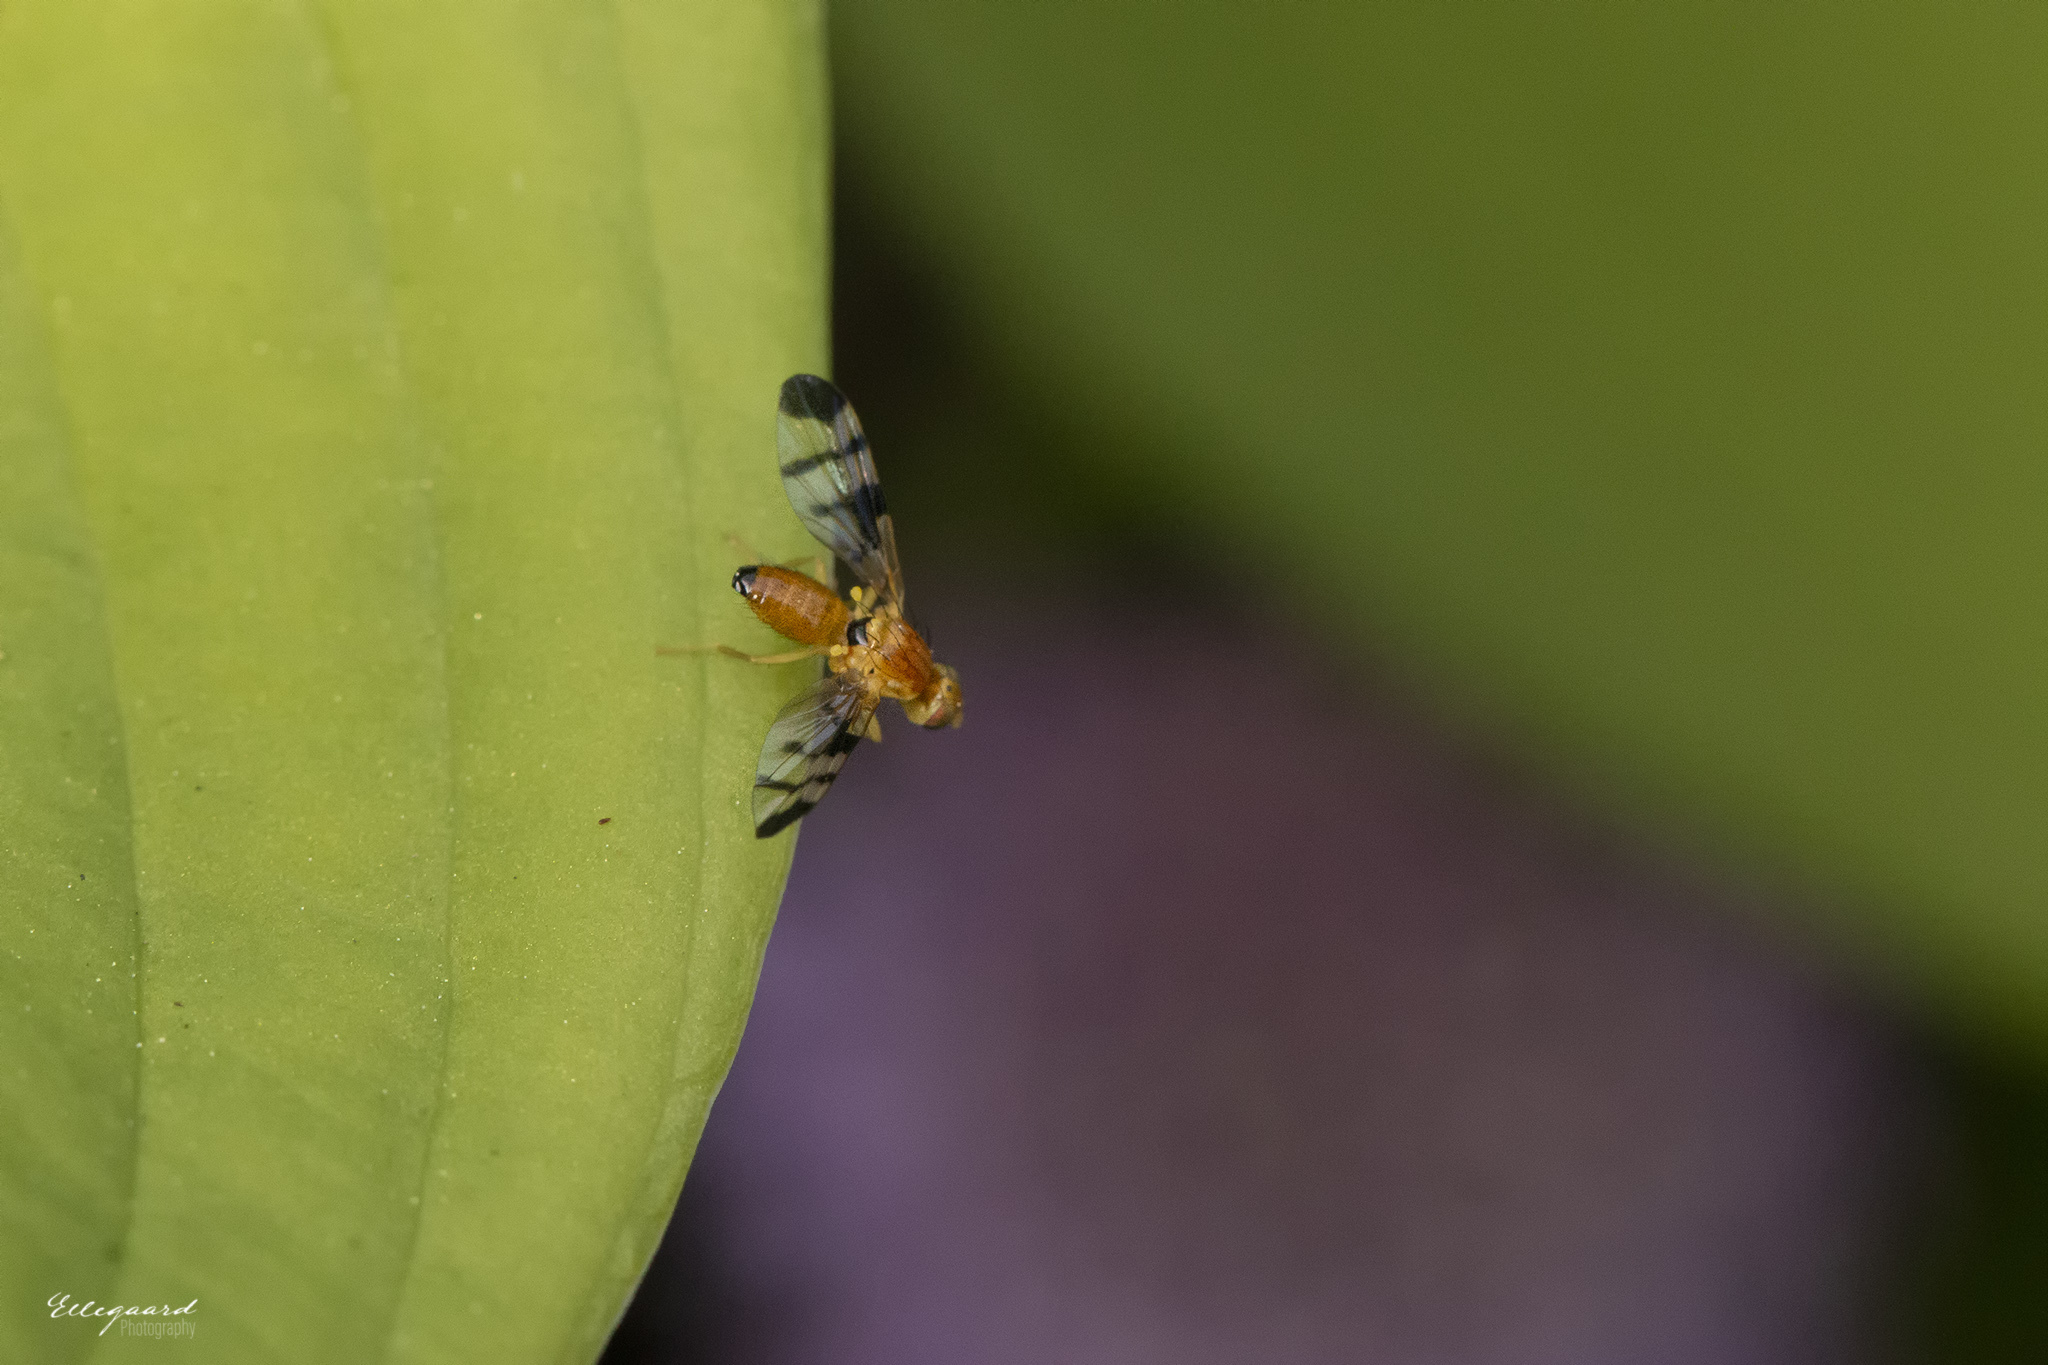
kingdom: Animalia
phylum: Arthropoda
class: Insecta
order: Diptera
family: Tephritidae
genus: Trypeta
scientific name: Trypeta zoe
